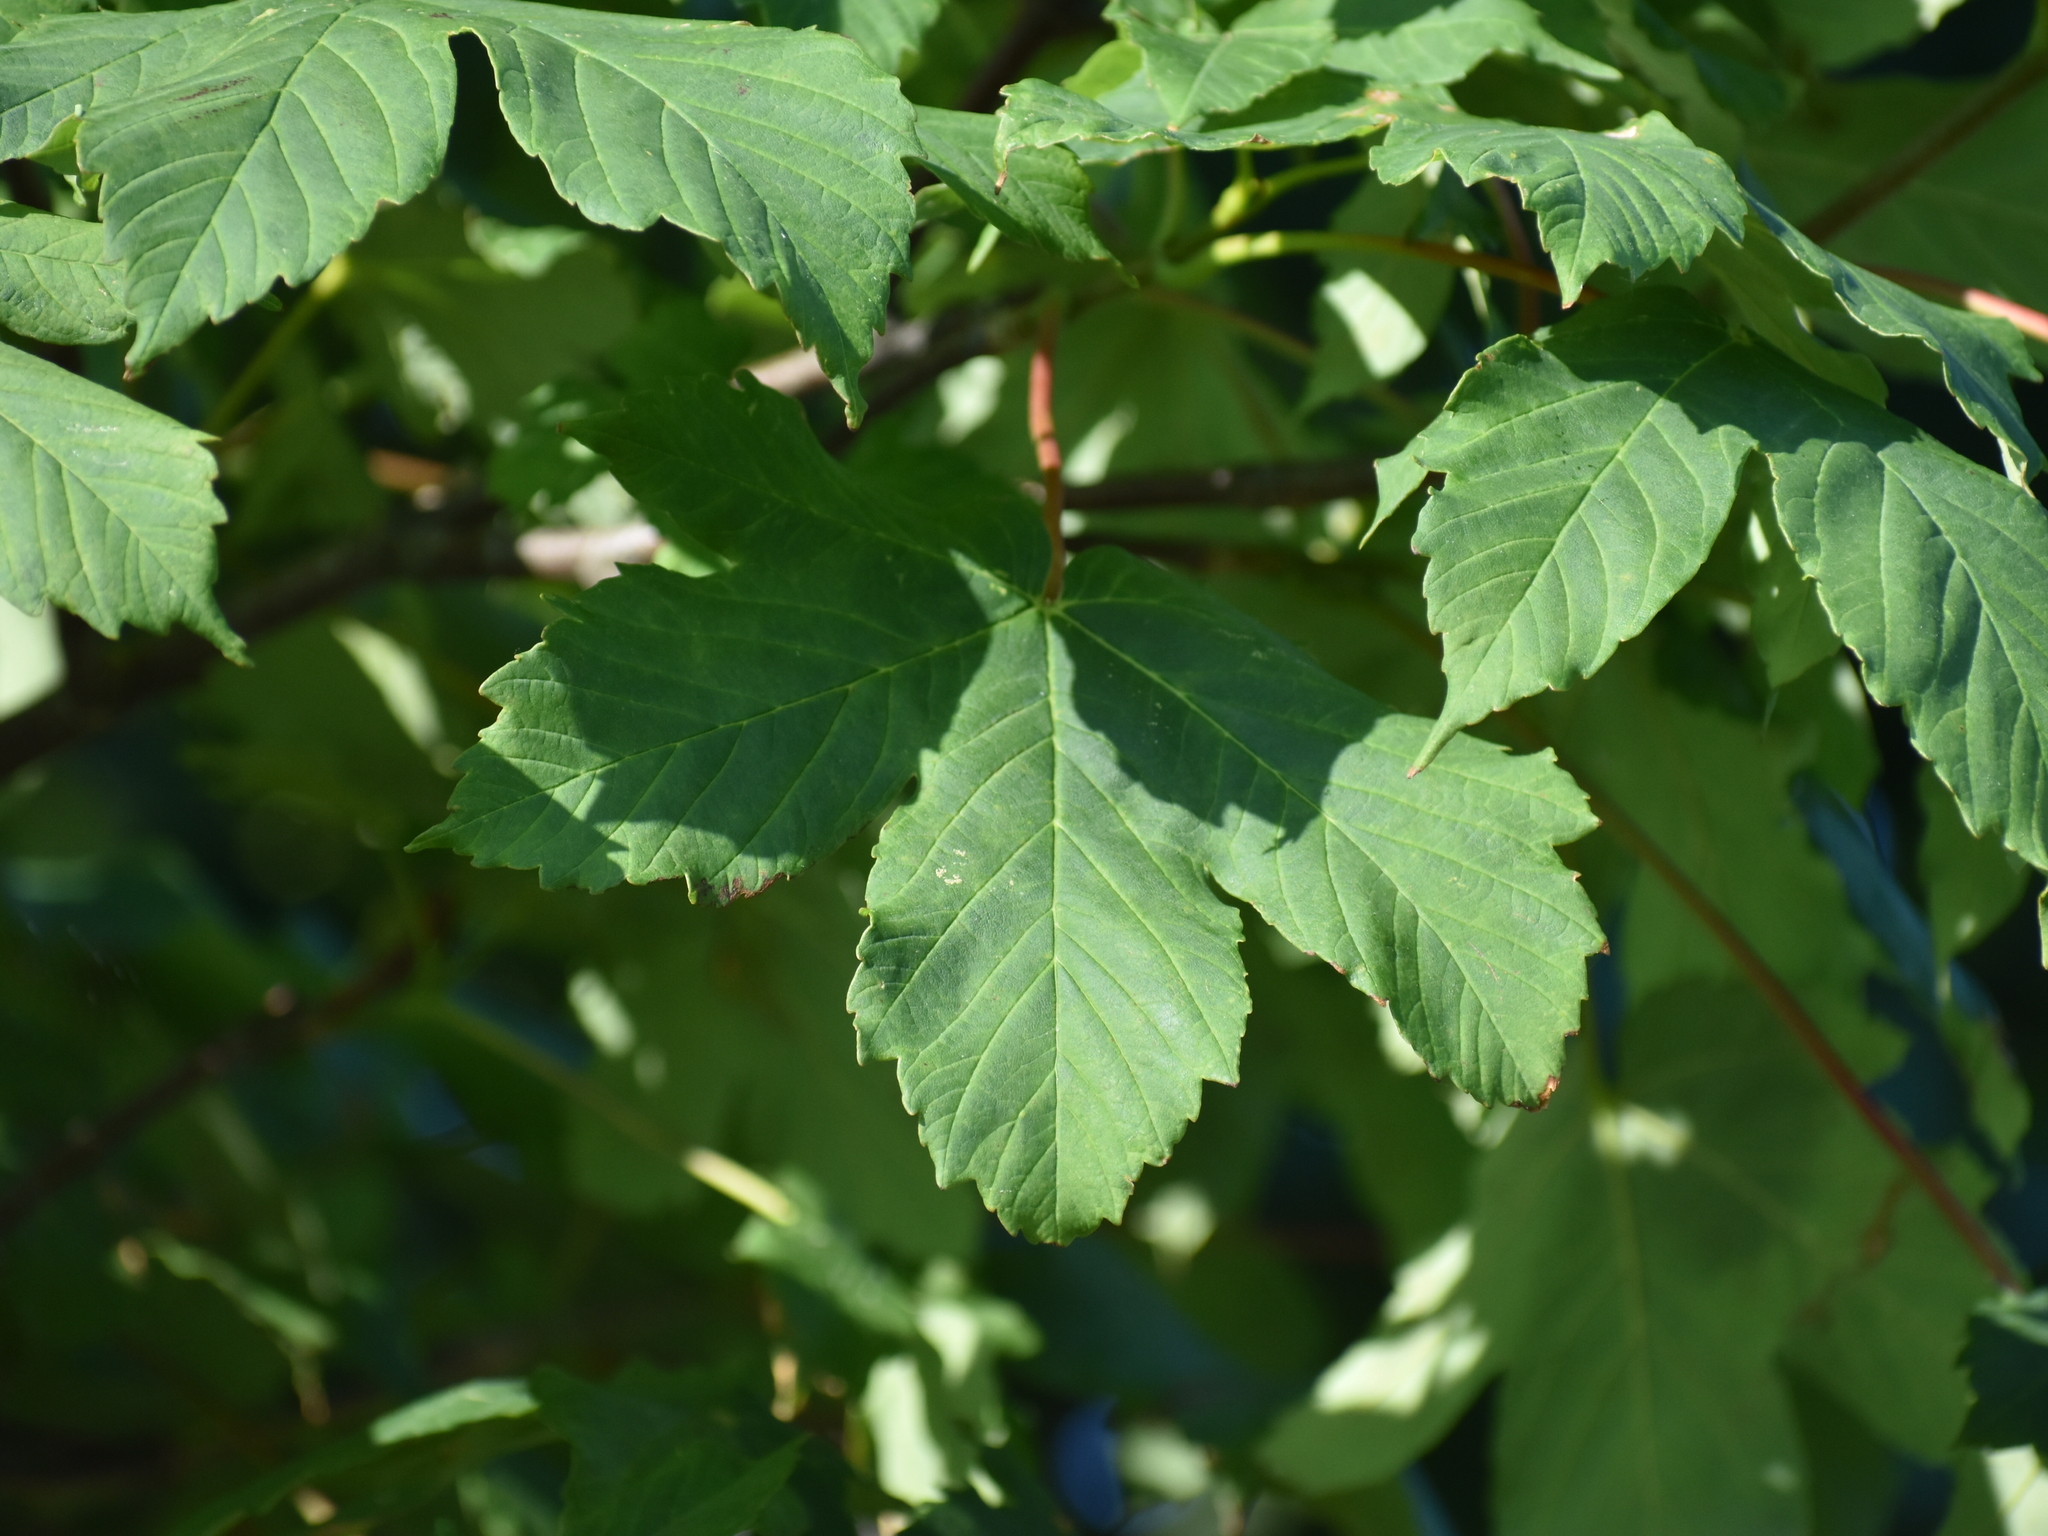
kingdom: Plantae
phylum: Tracheophyta
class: Magnoliopsida
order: Sapindales
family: Sapindaceae
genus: Acer
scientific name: Acer pseudoplatanus
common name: Sycamore
